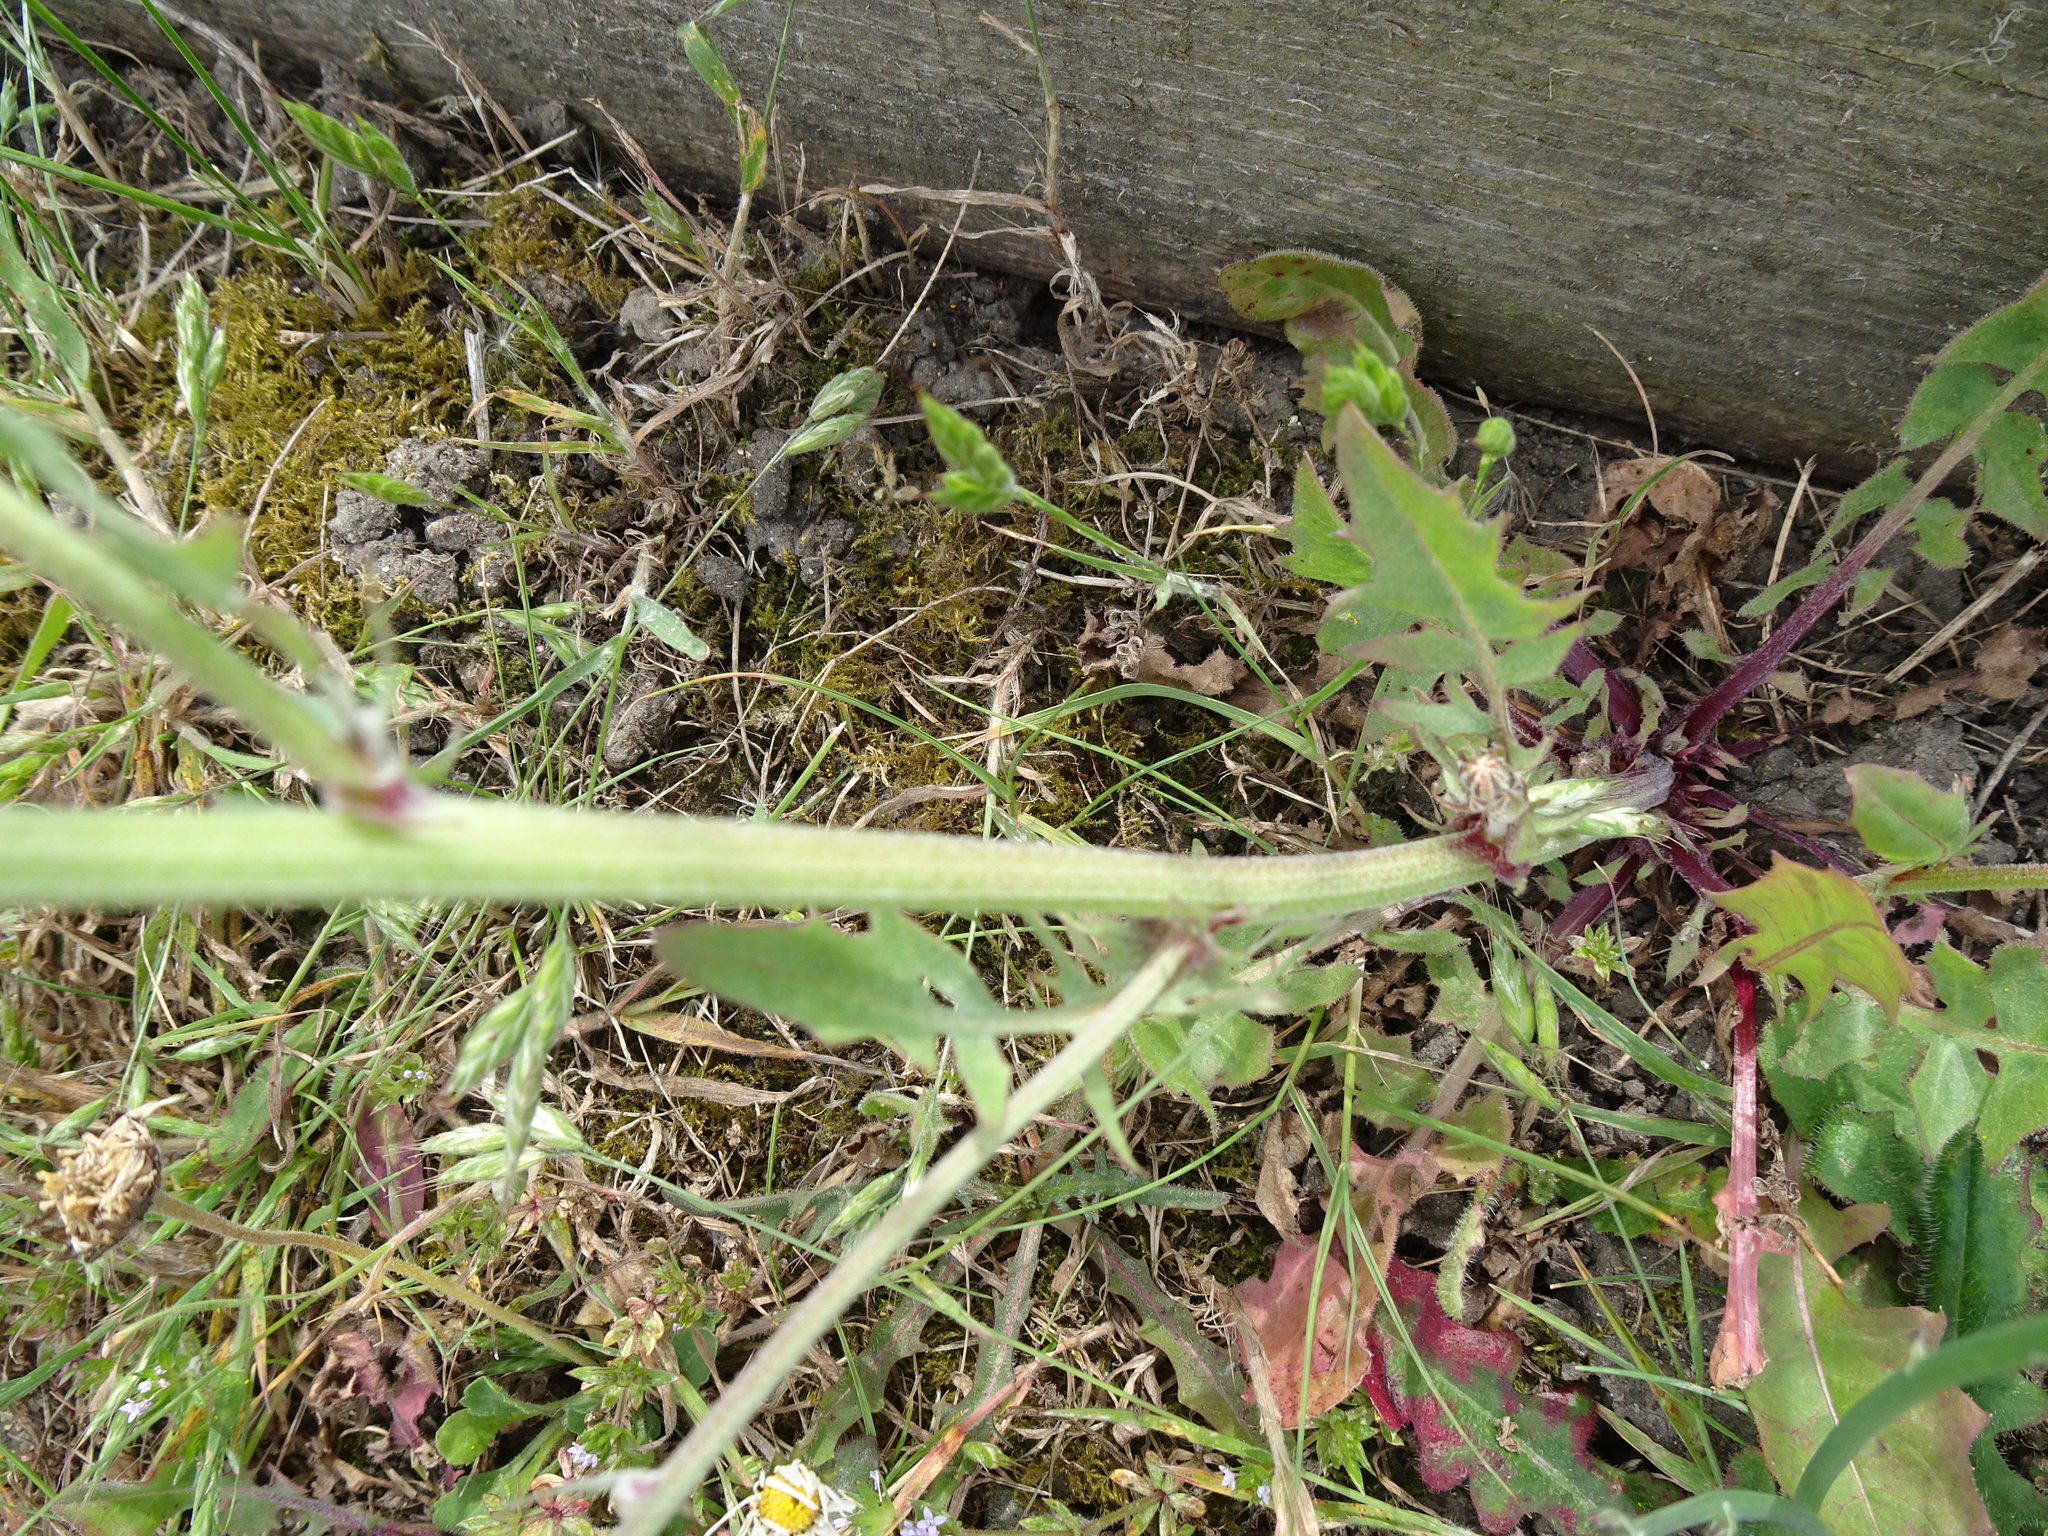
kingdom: Plantae
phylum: Tracheophyta
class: Magnoliopsida
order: Asterales
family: Asteraceae
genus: Crepis
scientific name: Crepis biennis
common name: Rough hawk's-beard
